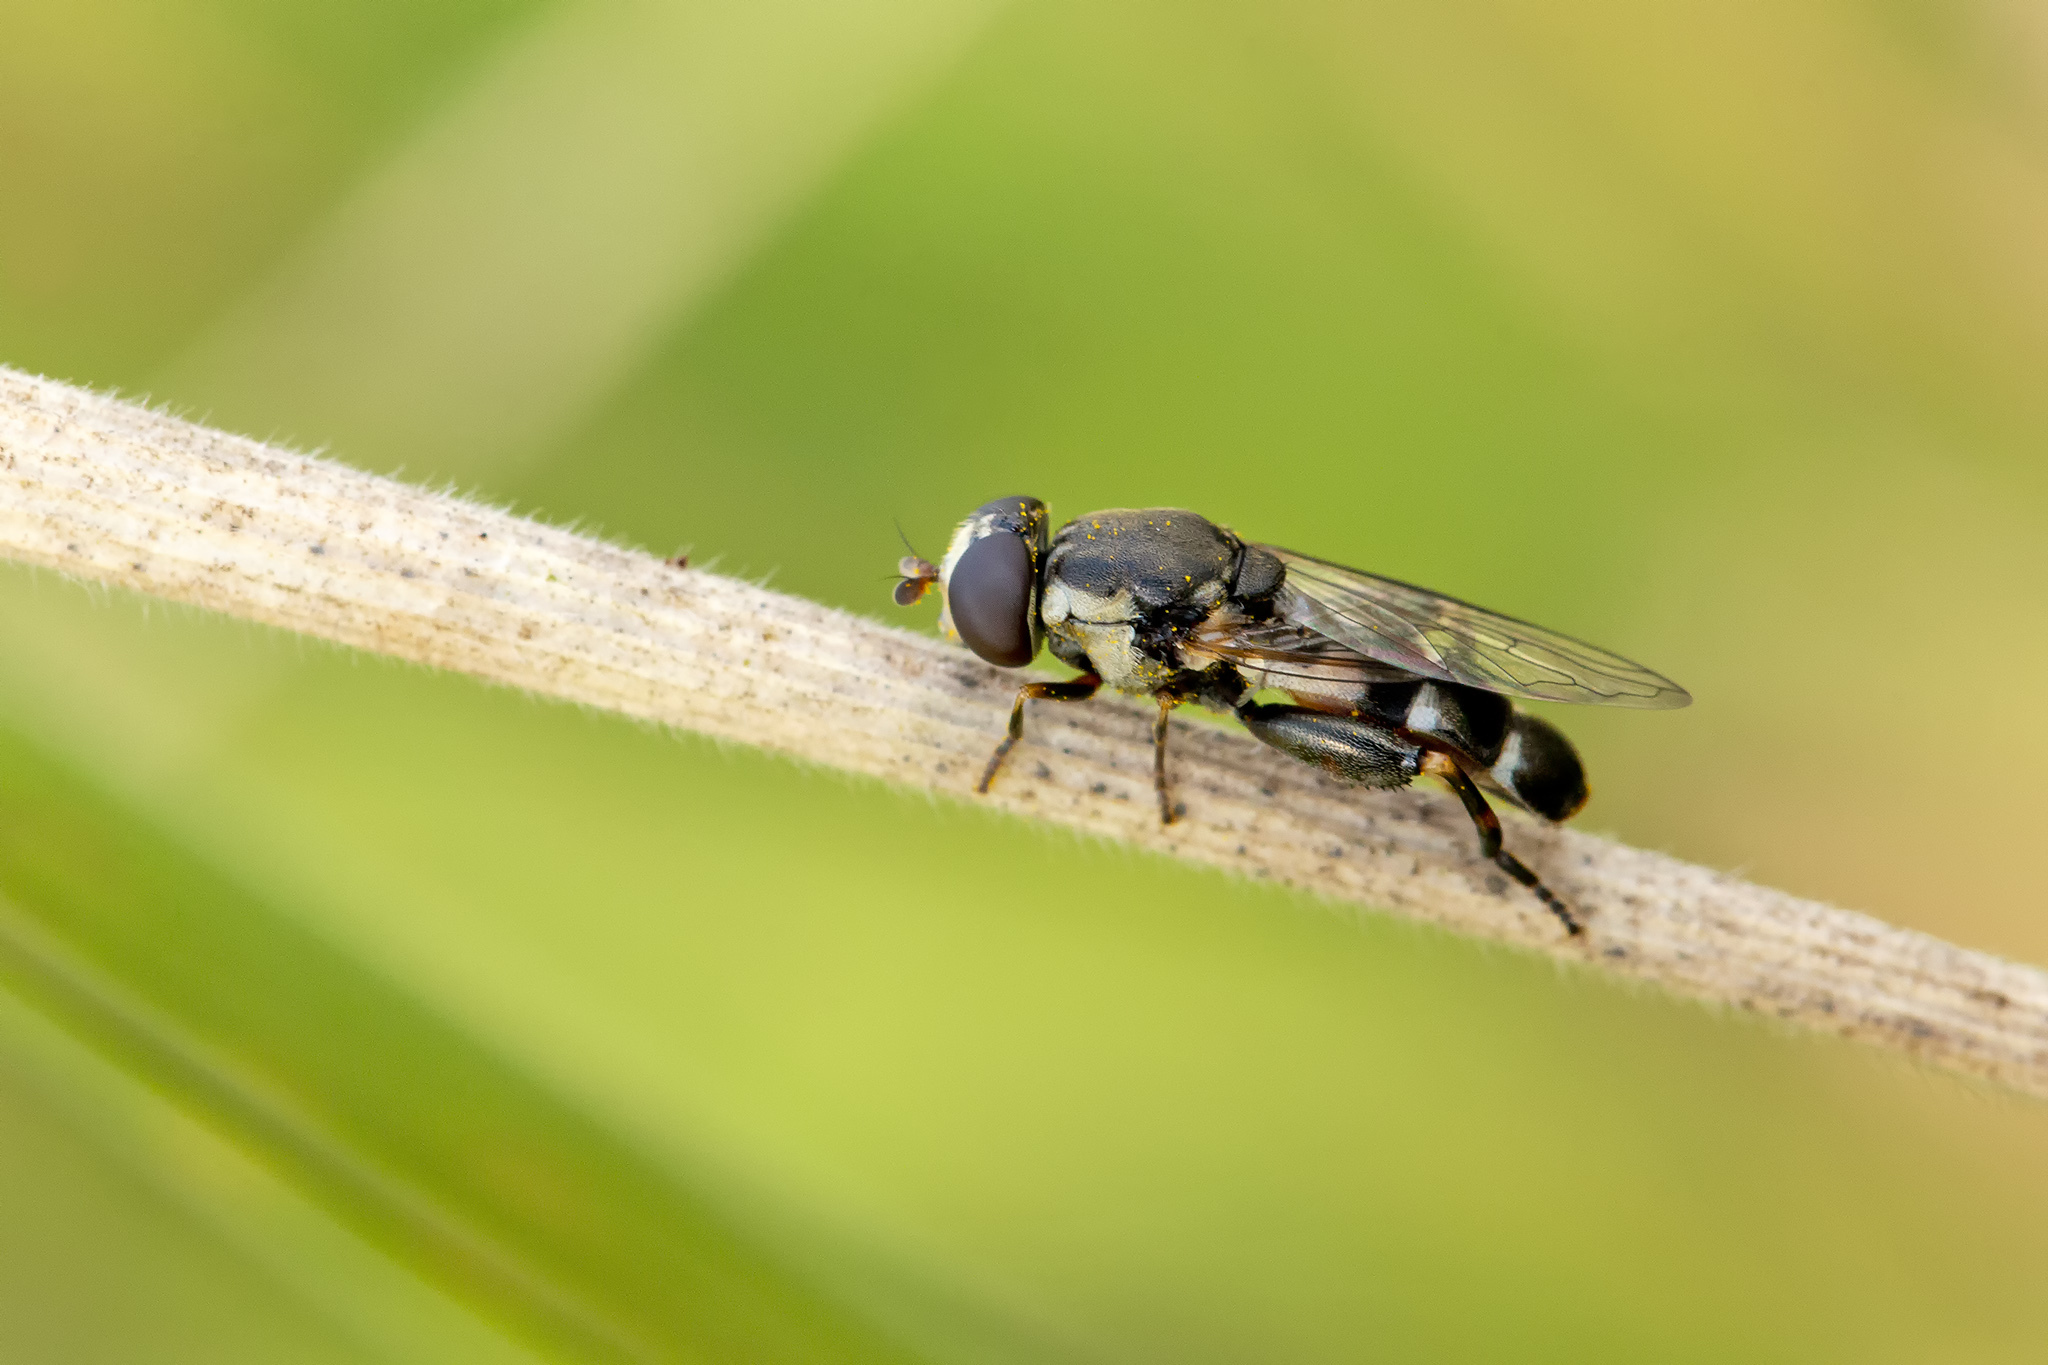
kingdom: Animalia
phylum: Arthropoda
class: Insecta
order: Diptera
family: Syrphidae
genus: Syritta
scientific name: Syritta pipiens
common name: Hover fly
